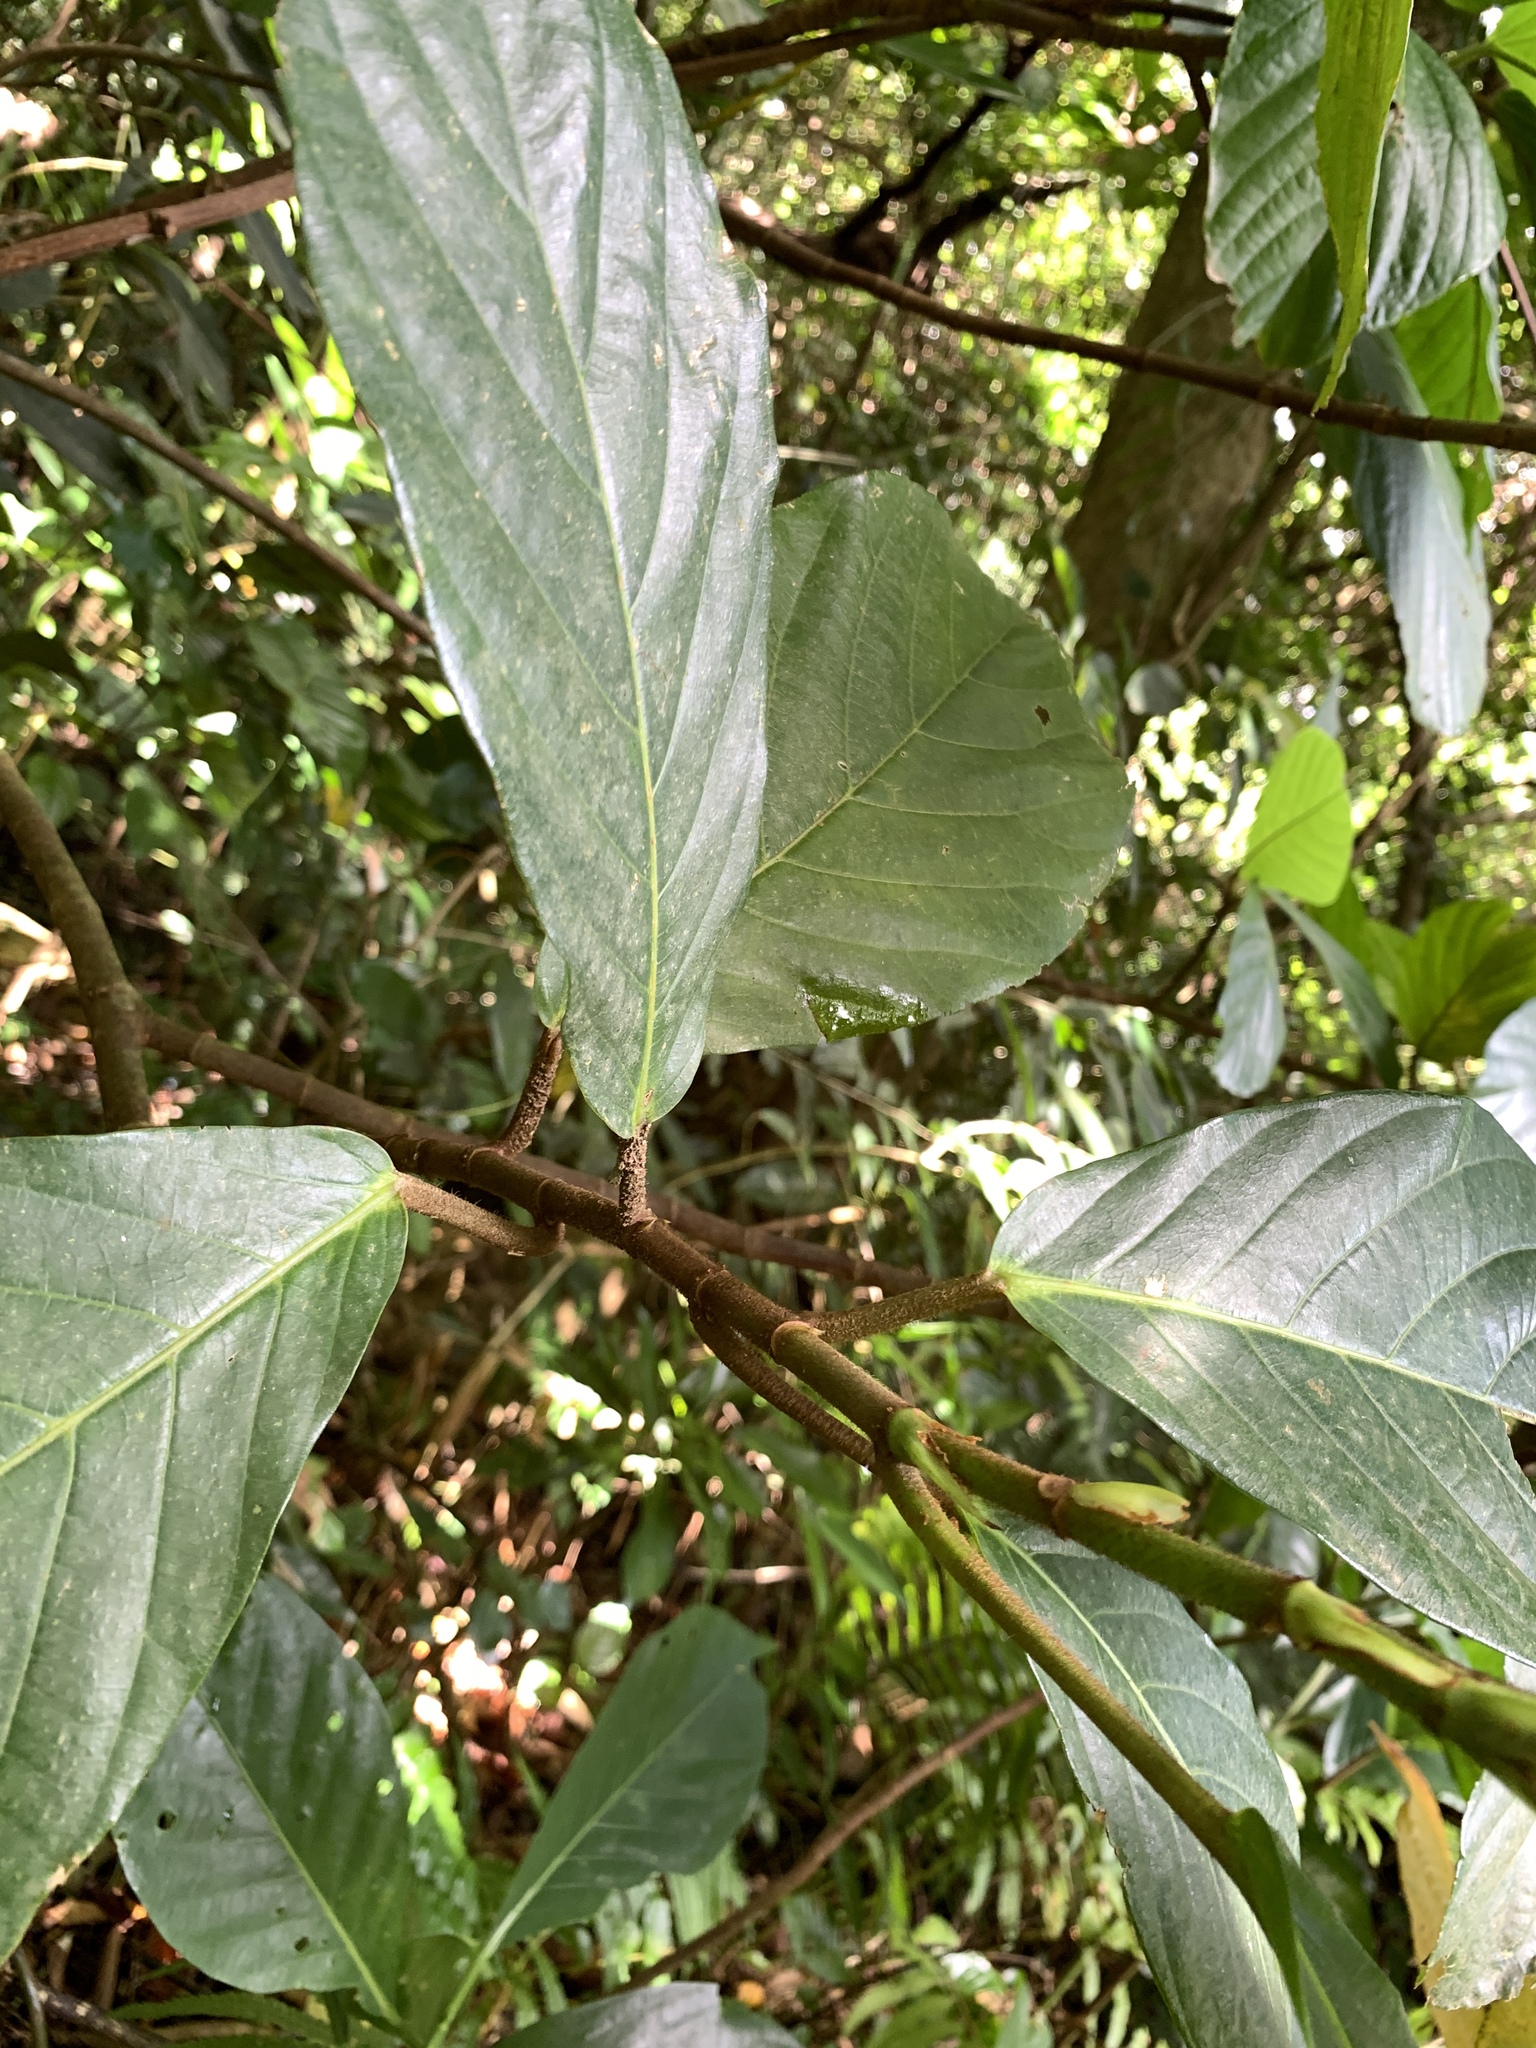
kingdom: Plantae
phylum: Tracheophyta
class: Magnoliopsida
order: Rosales
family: Moraceae
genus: Ficus
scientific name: Ficus benguetensis
